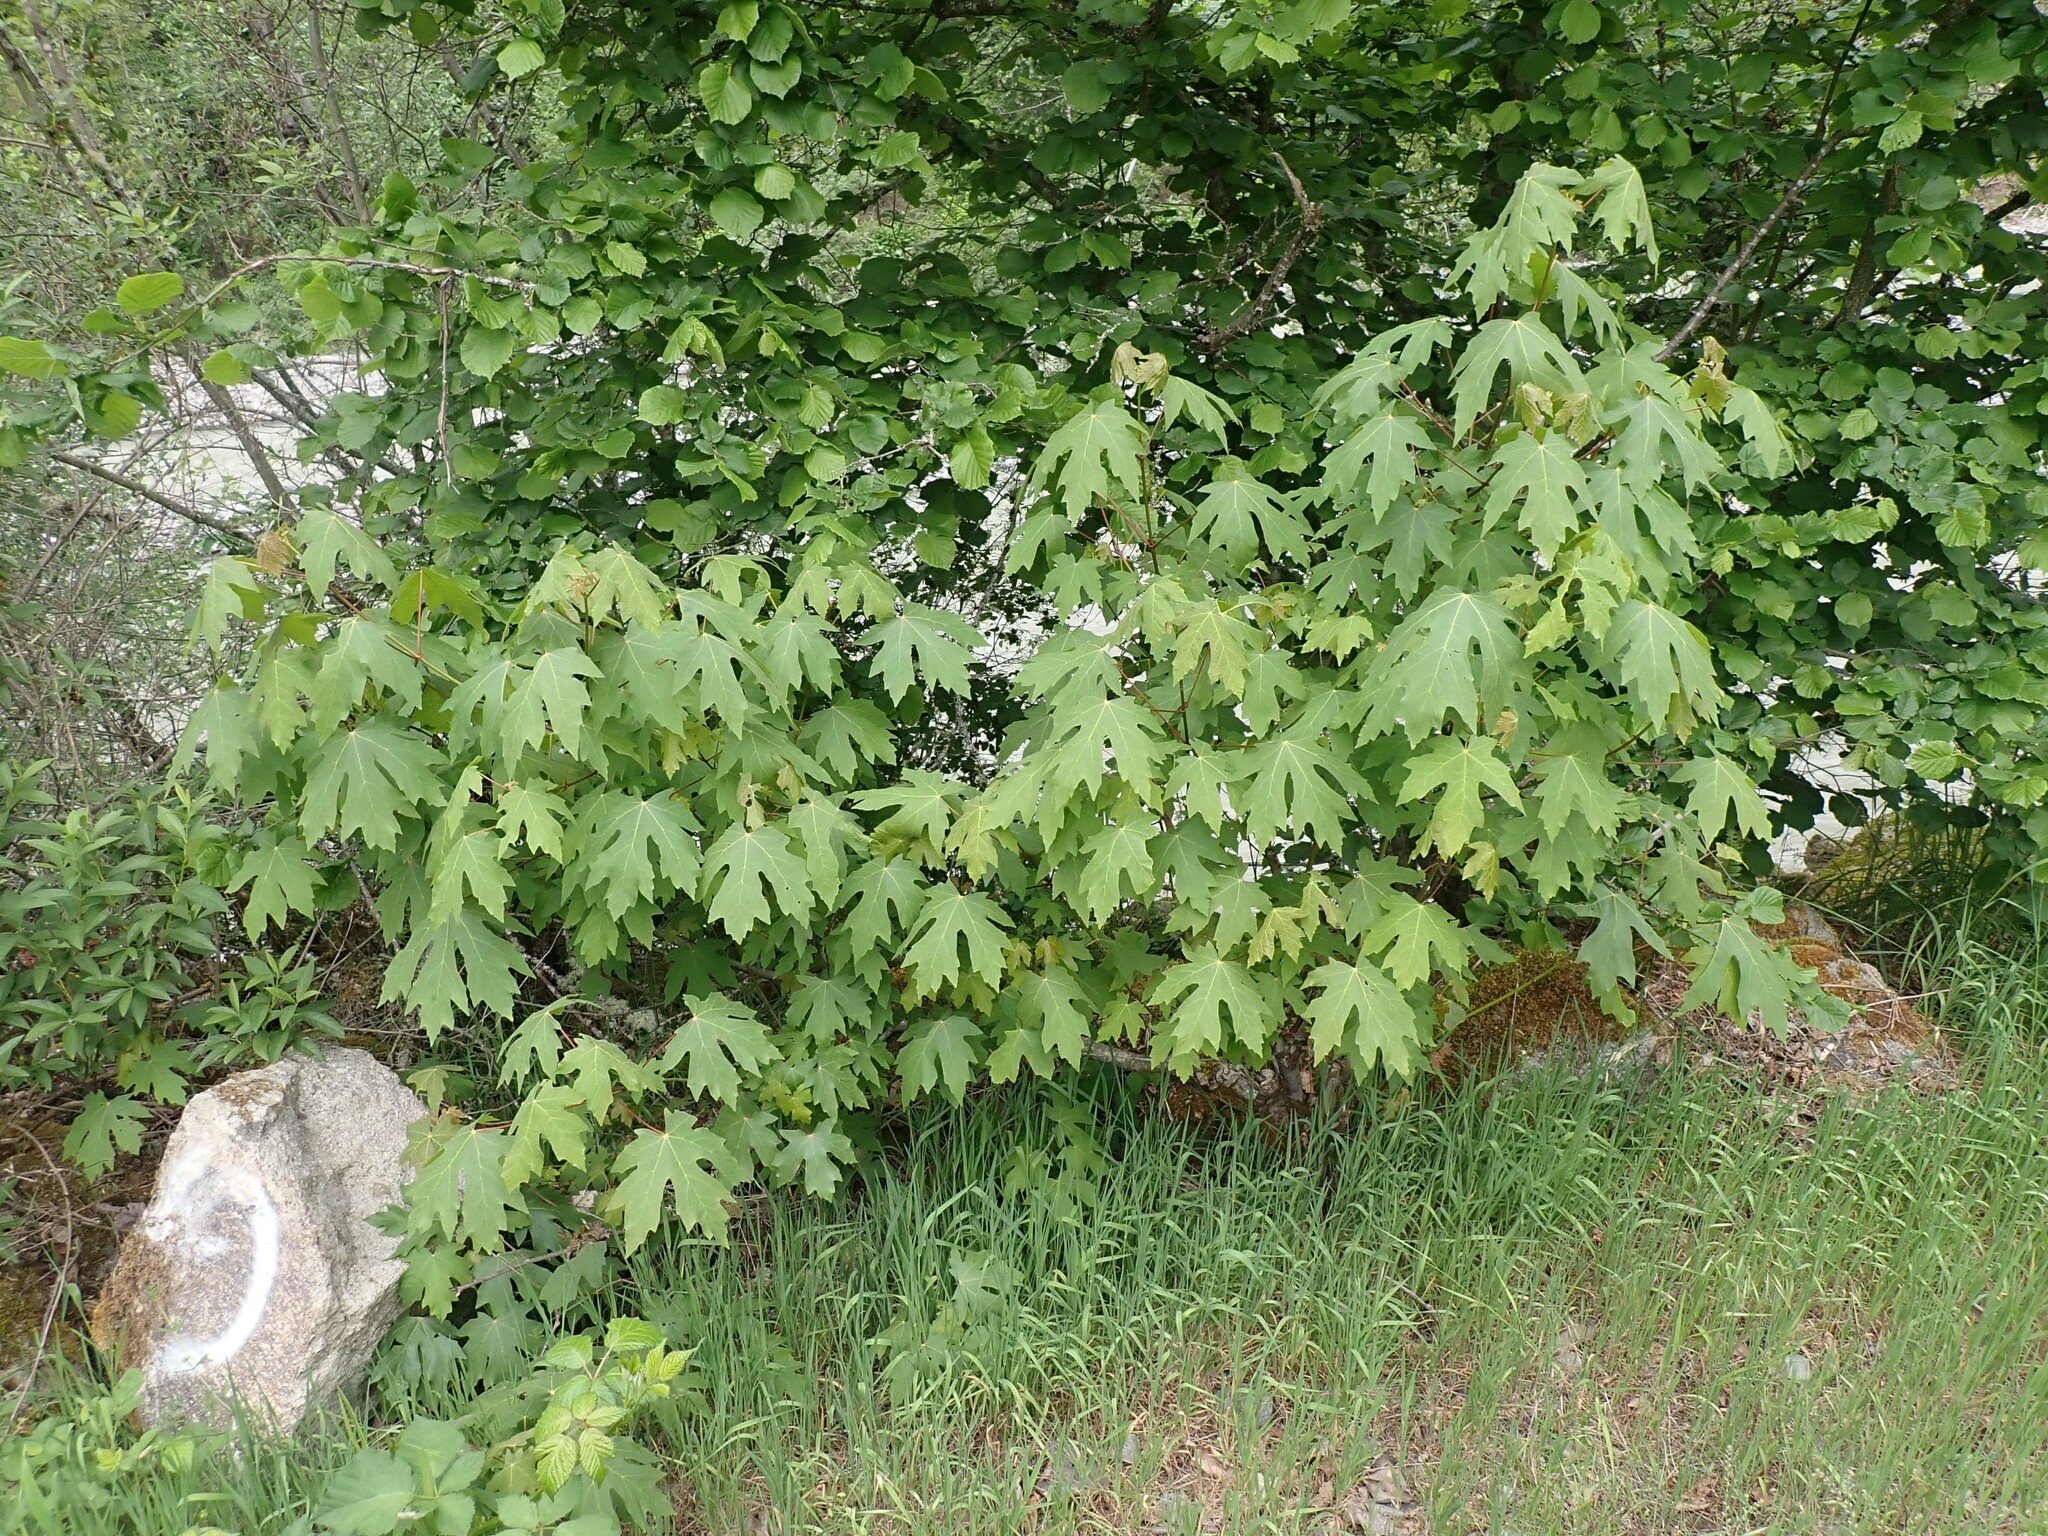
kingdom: Plantae
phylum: Tracheophyta
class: Magnoliopsida
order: Sapindales
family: Sapindaceae
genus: Acer
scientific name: Acer macrophyllum
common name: Oregon maple
